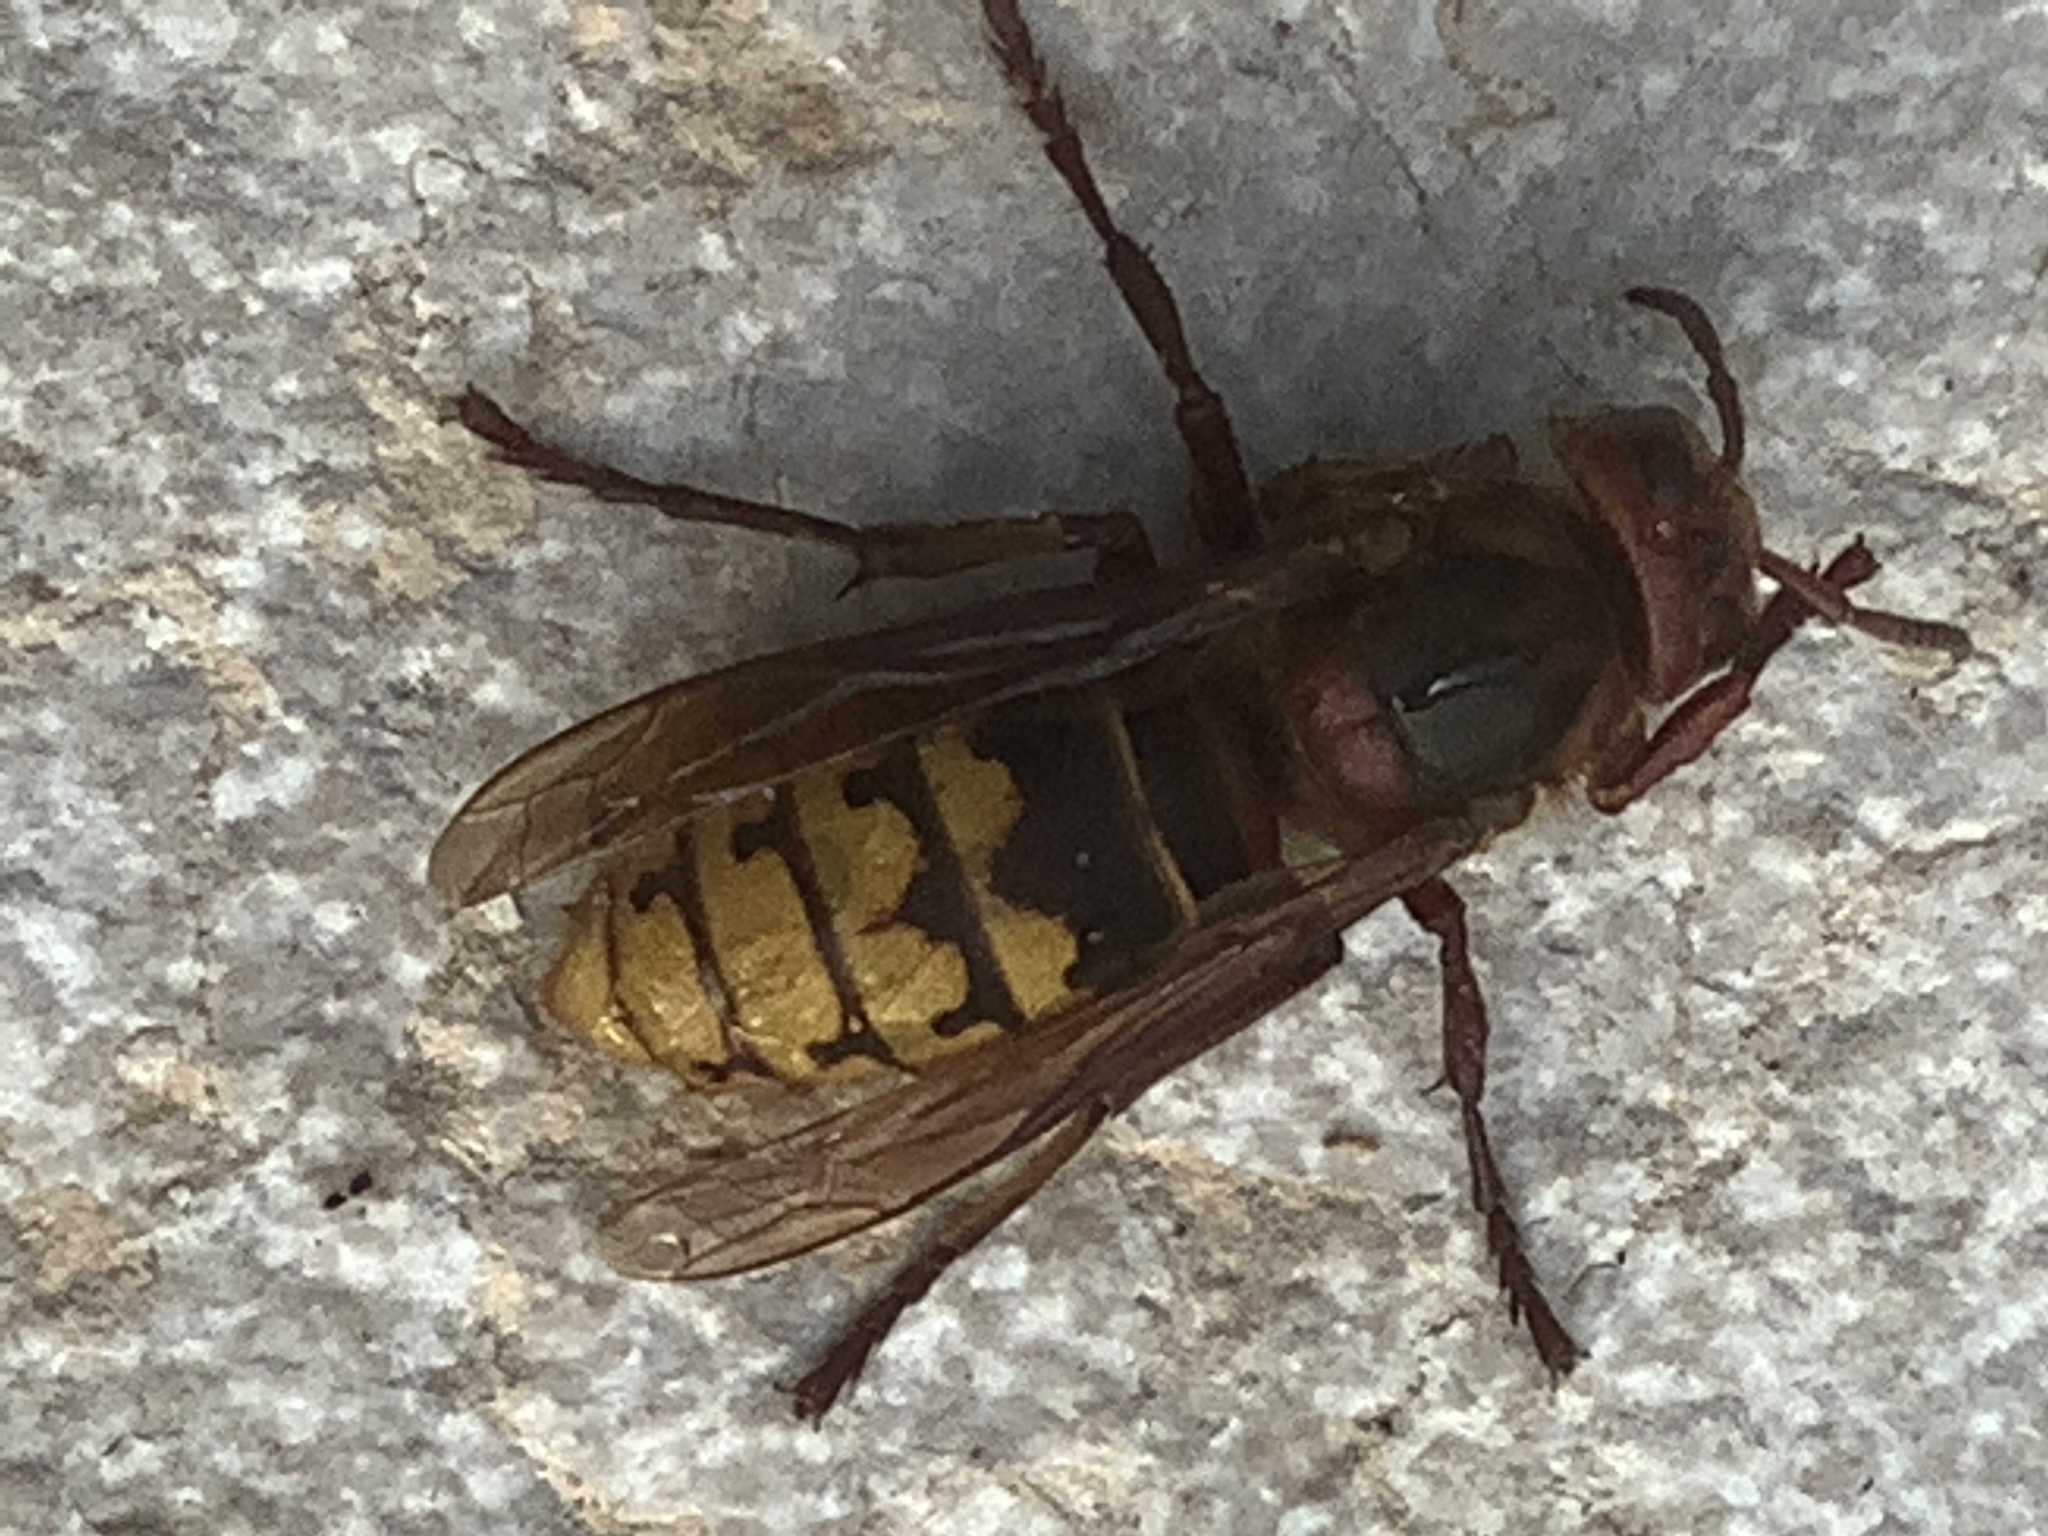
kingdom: Animalia
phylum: Arthropoda
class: Insecta
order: Hymenoptera
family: Vespidae
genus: Vespa
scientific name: Vespa crabro
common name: Hornet
